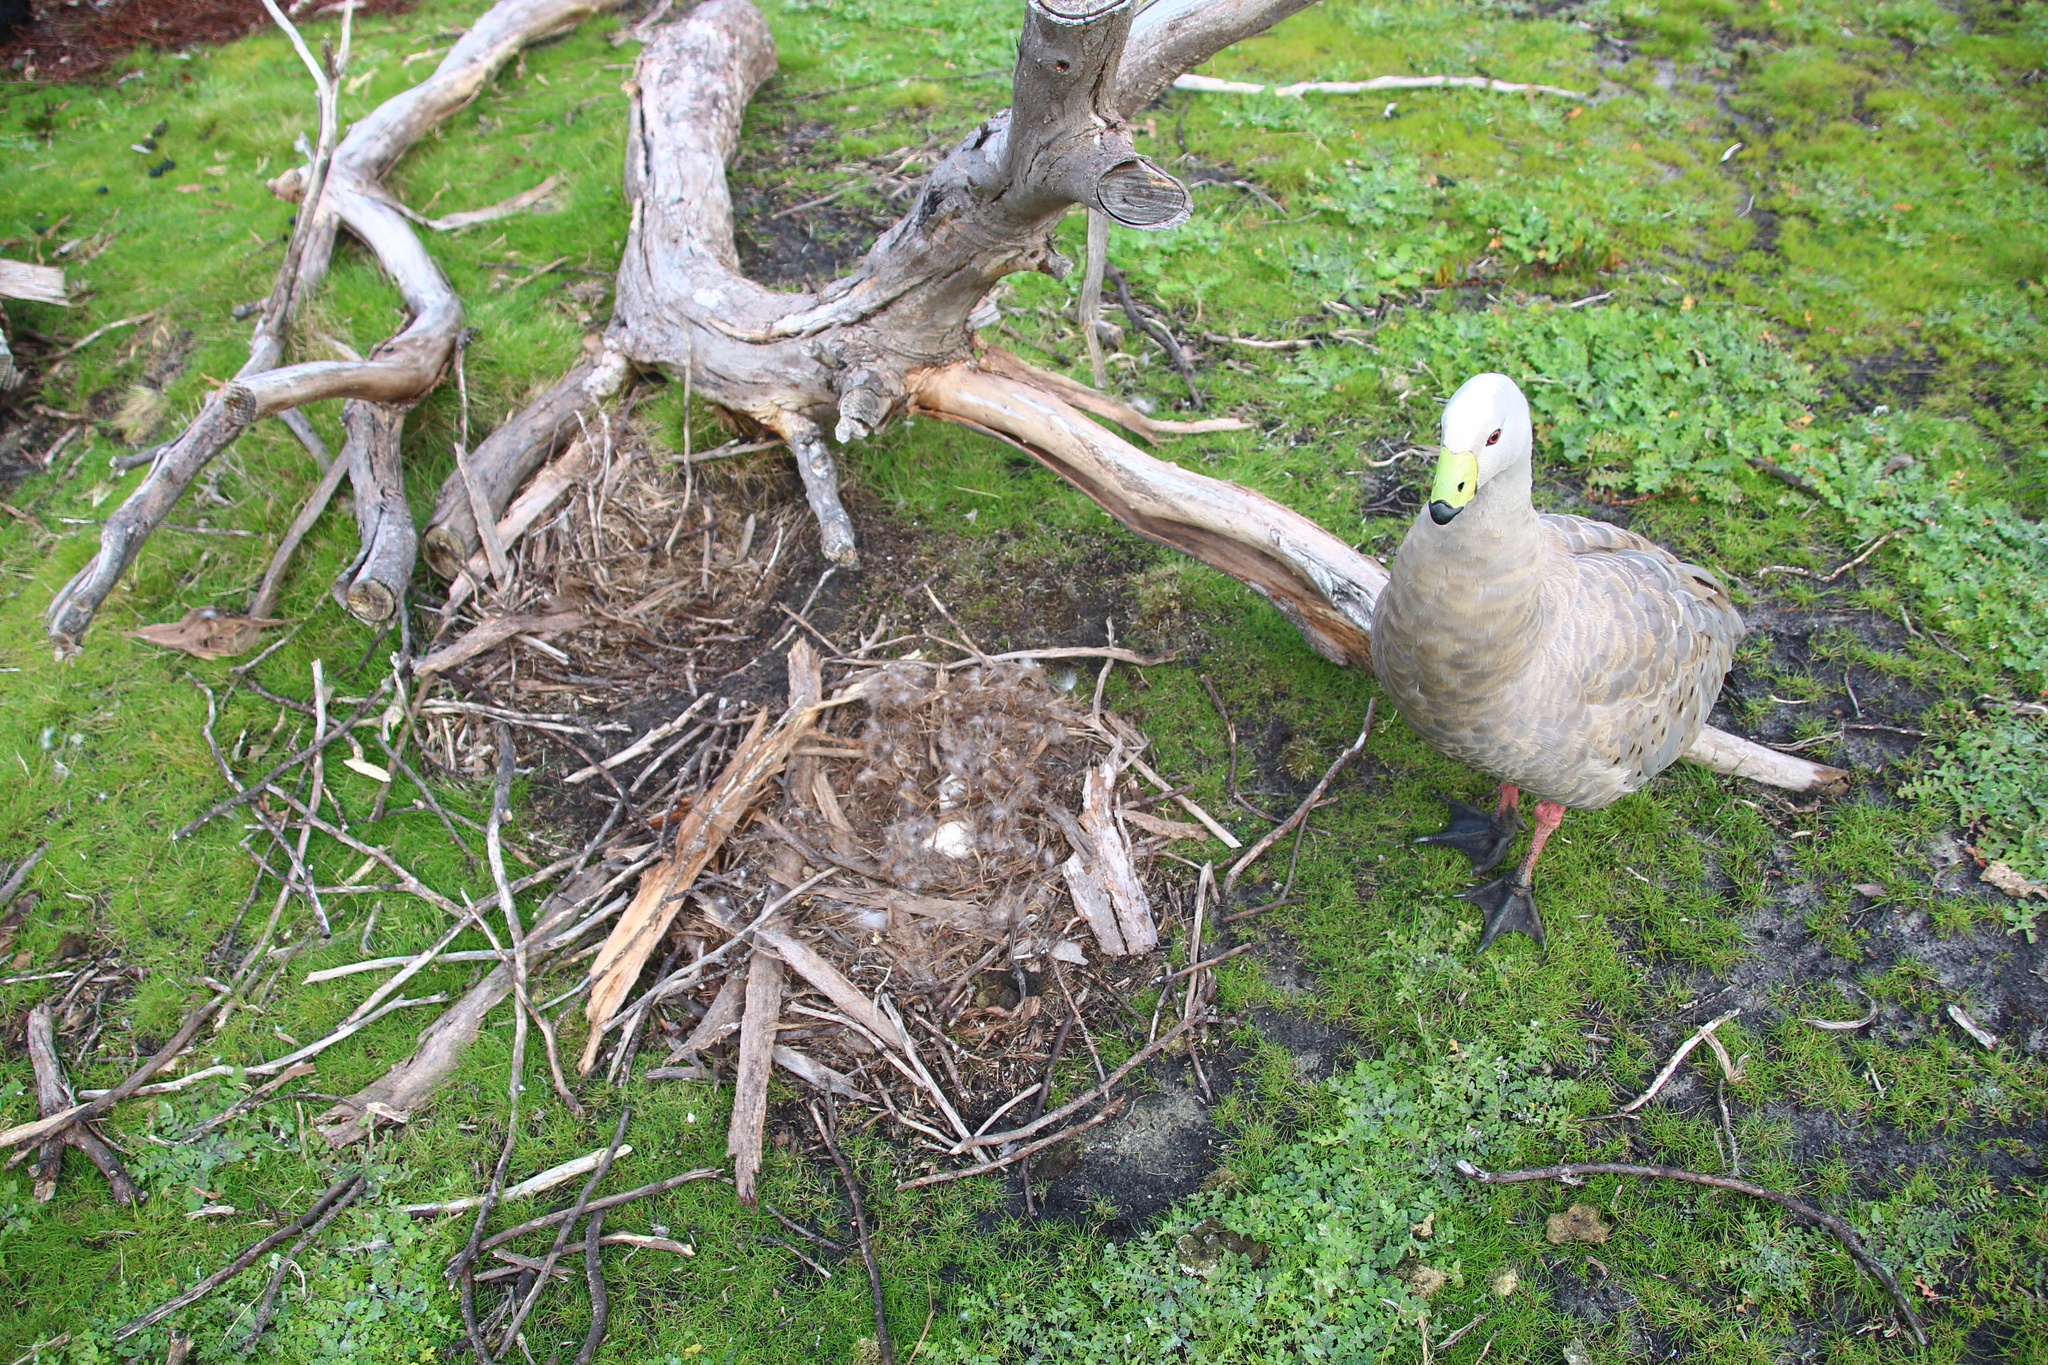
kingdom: Animalia
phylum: Chordata
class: Aves
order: Anseriformes
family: Anatidae
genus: Cereopsis
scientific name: Cereopsis novaehollandiae
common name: Cape barren goose
